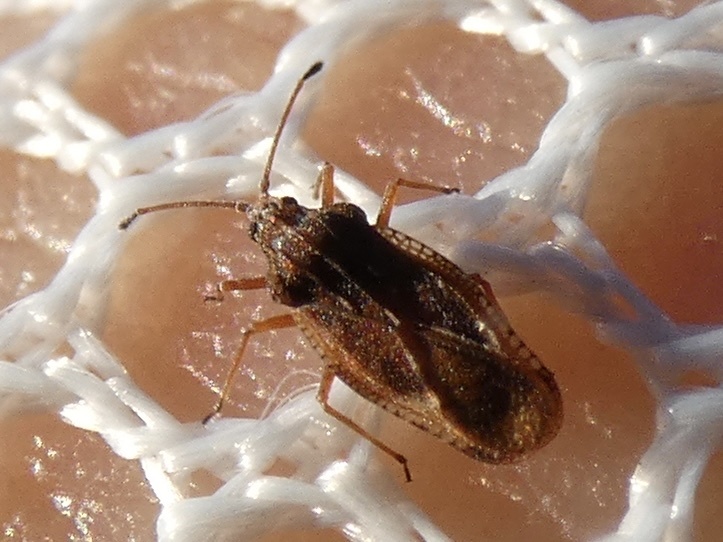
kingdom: Animalia
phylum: Arthropoda
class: Insecta
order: Hemiptera
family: Tingidae
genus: Physatocheila
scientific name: Physatocheila dumetorum
